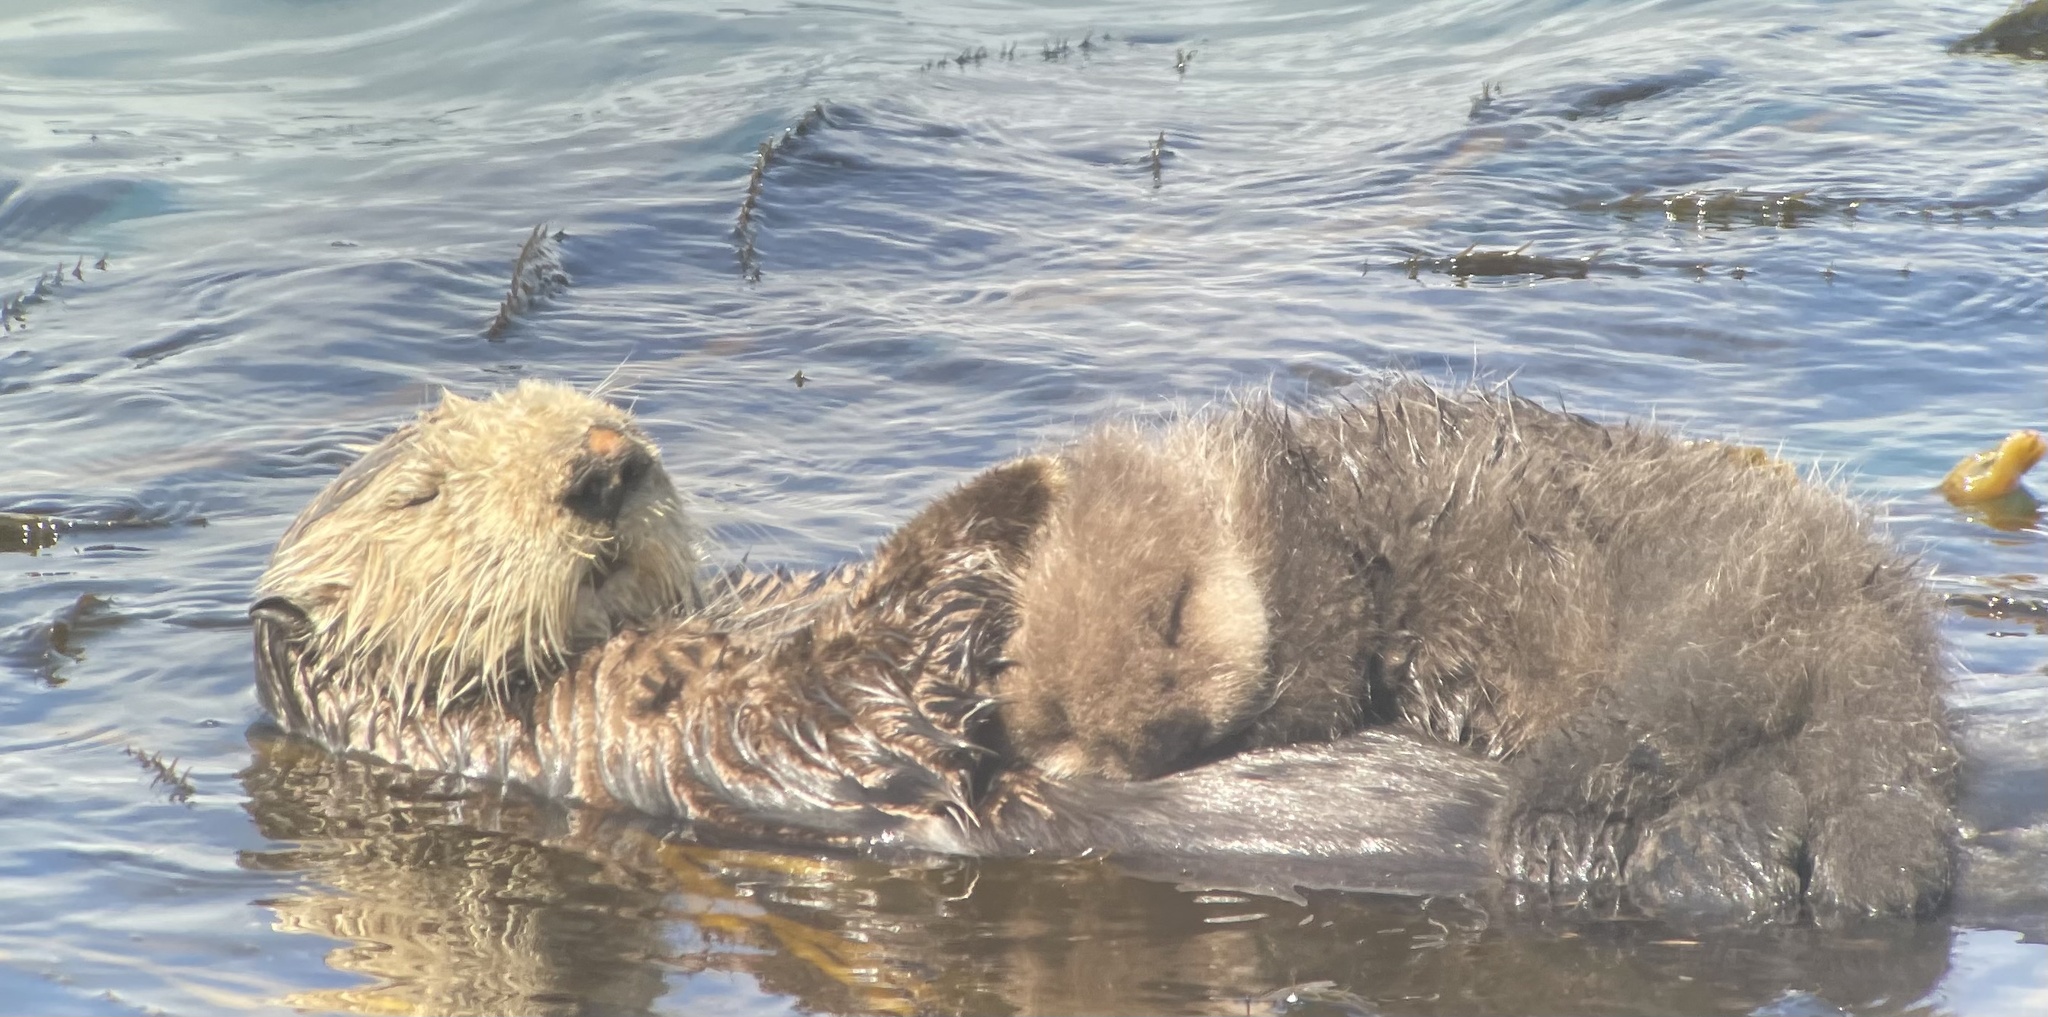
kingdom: Animalia
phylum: Chordata
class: Mammalia
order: Carnivora
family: Mustelidae
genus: Enhydra
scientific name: Enhydra lutris
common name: Sea otter
